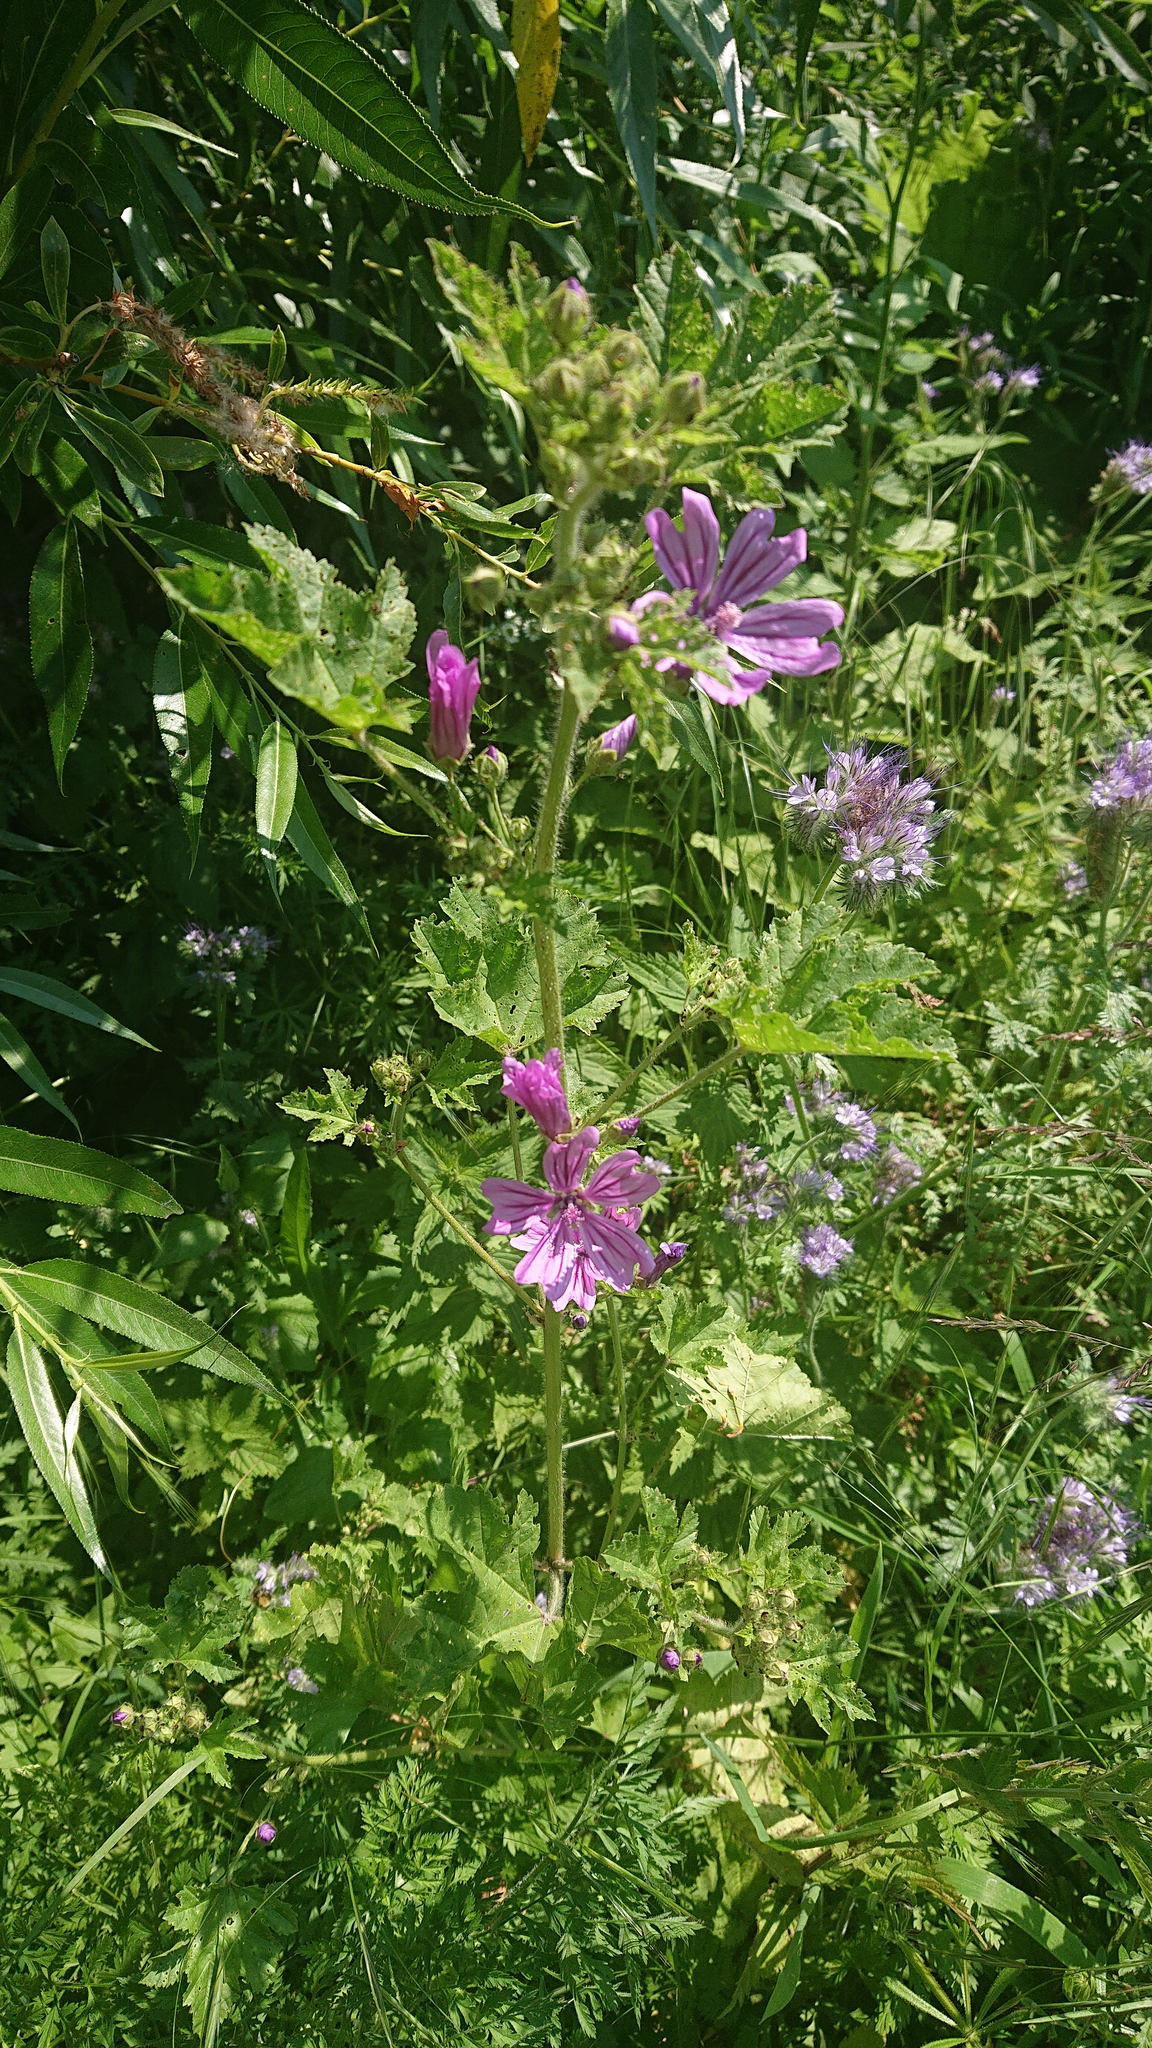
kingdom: Plantae
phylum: Tracheophyta
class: Magnoliopsida
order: Malvales
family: Malvaceae
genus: Malva
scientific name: Malva sylvestris
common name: Common mallow
